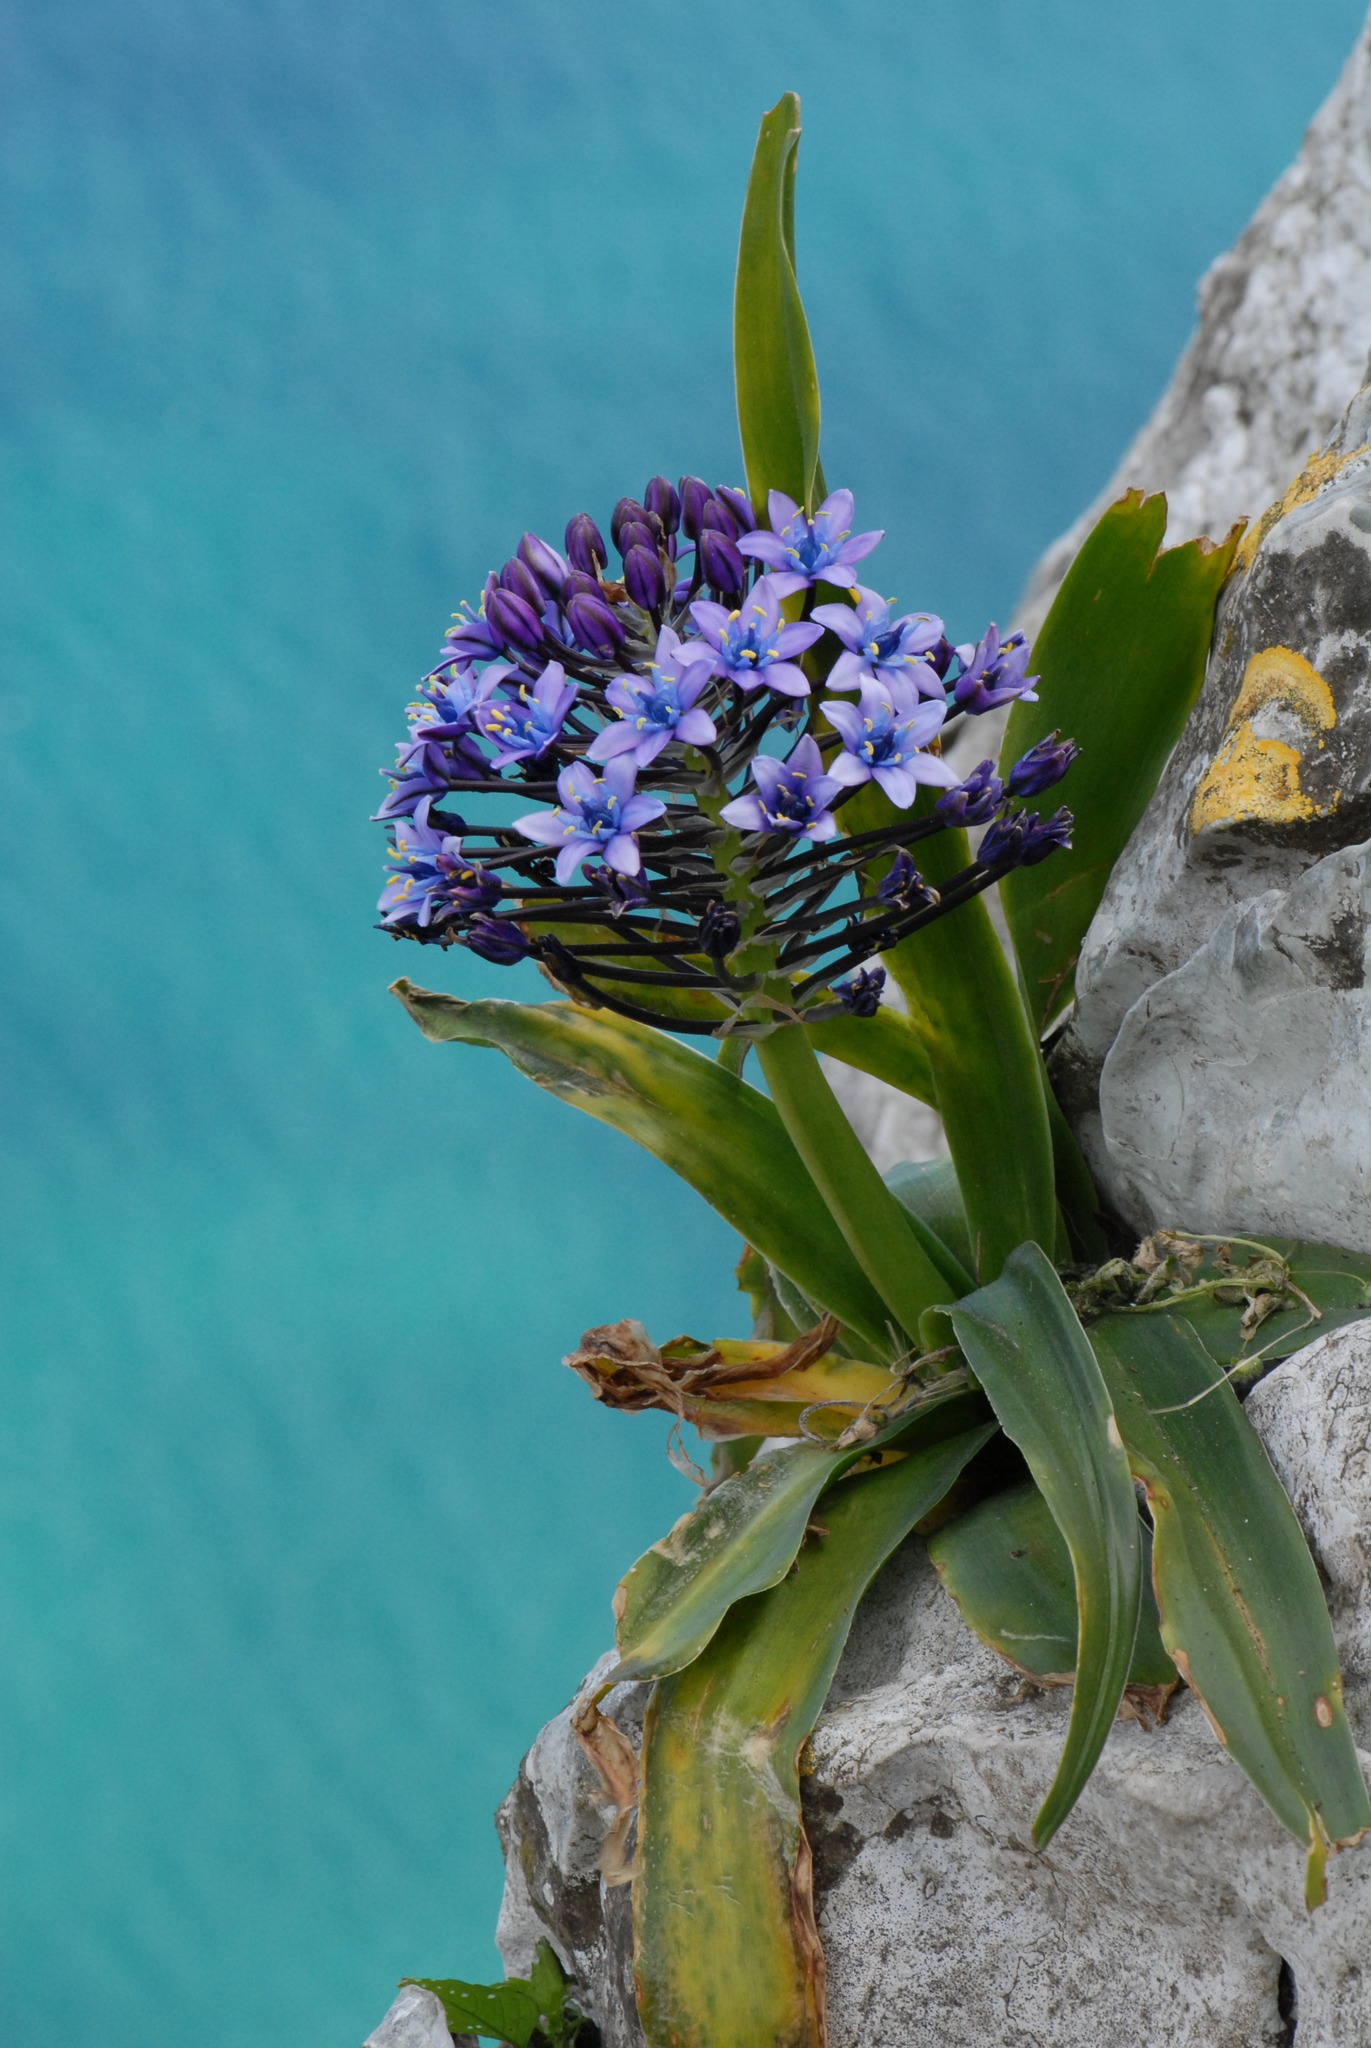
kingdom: Plantae
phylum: Tracheophyta
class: Liliopsida
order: Asparagales
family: Asparagaceae
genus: Scilla
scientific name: Scilla peruviana
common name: Portuguese squill
